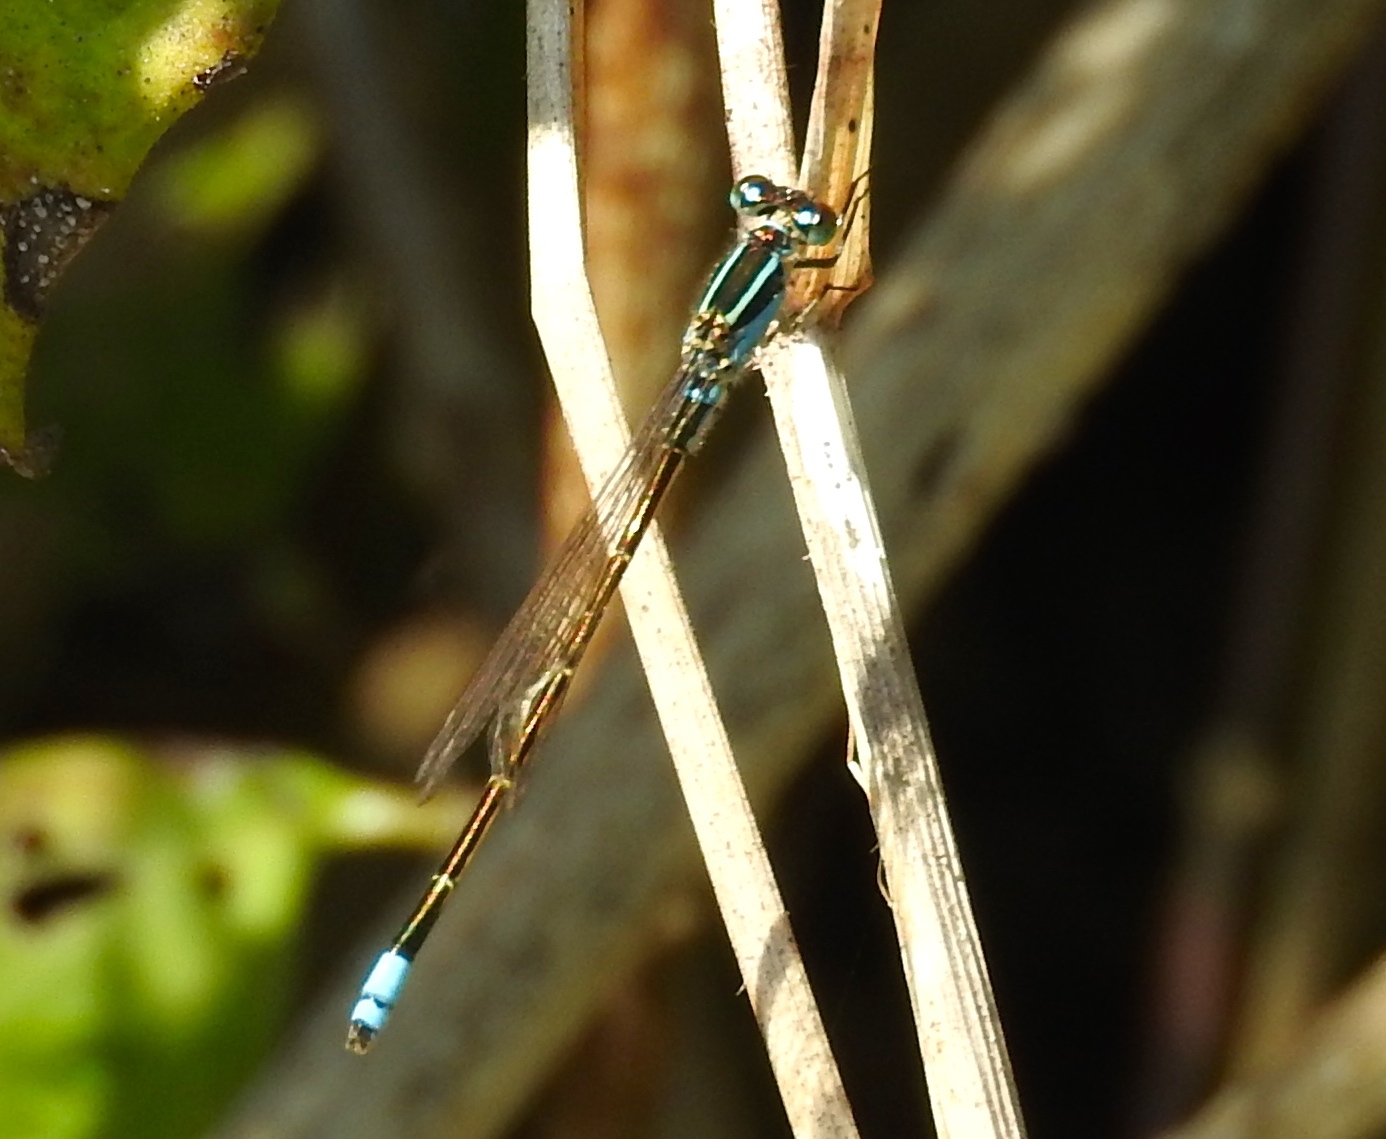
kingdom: Animalia
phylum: Arthropoda
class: Insecta
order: Odonata
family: Coenagrionidae
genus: Ischnura
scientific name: Ischnura ramburii
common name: Rambur's forktail
